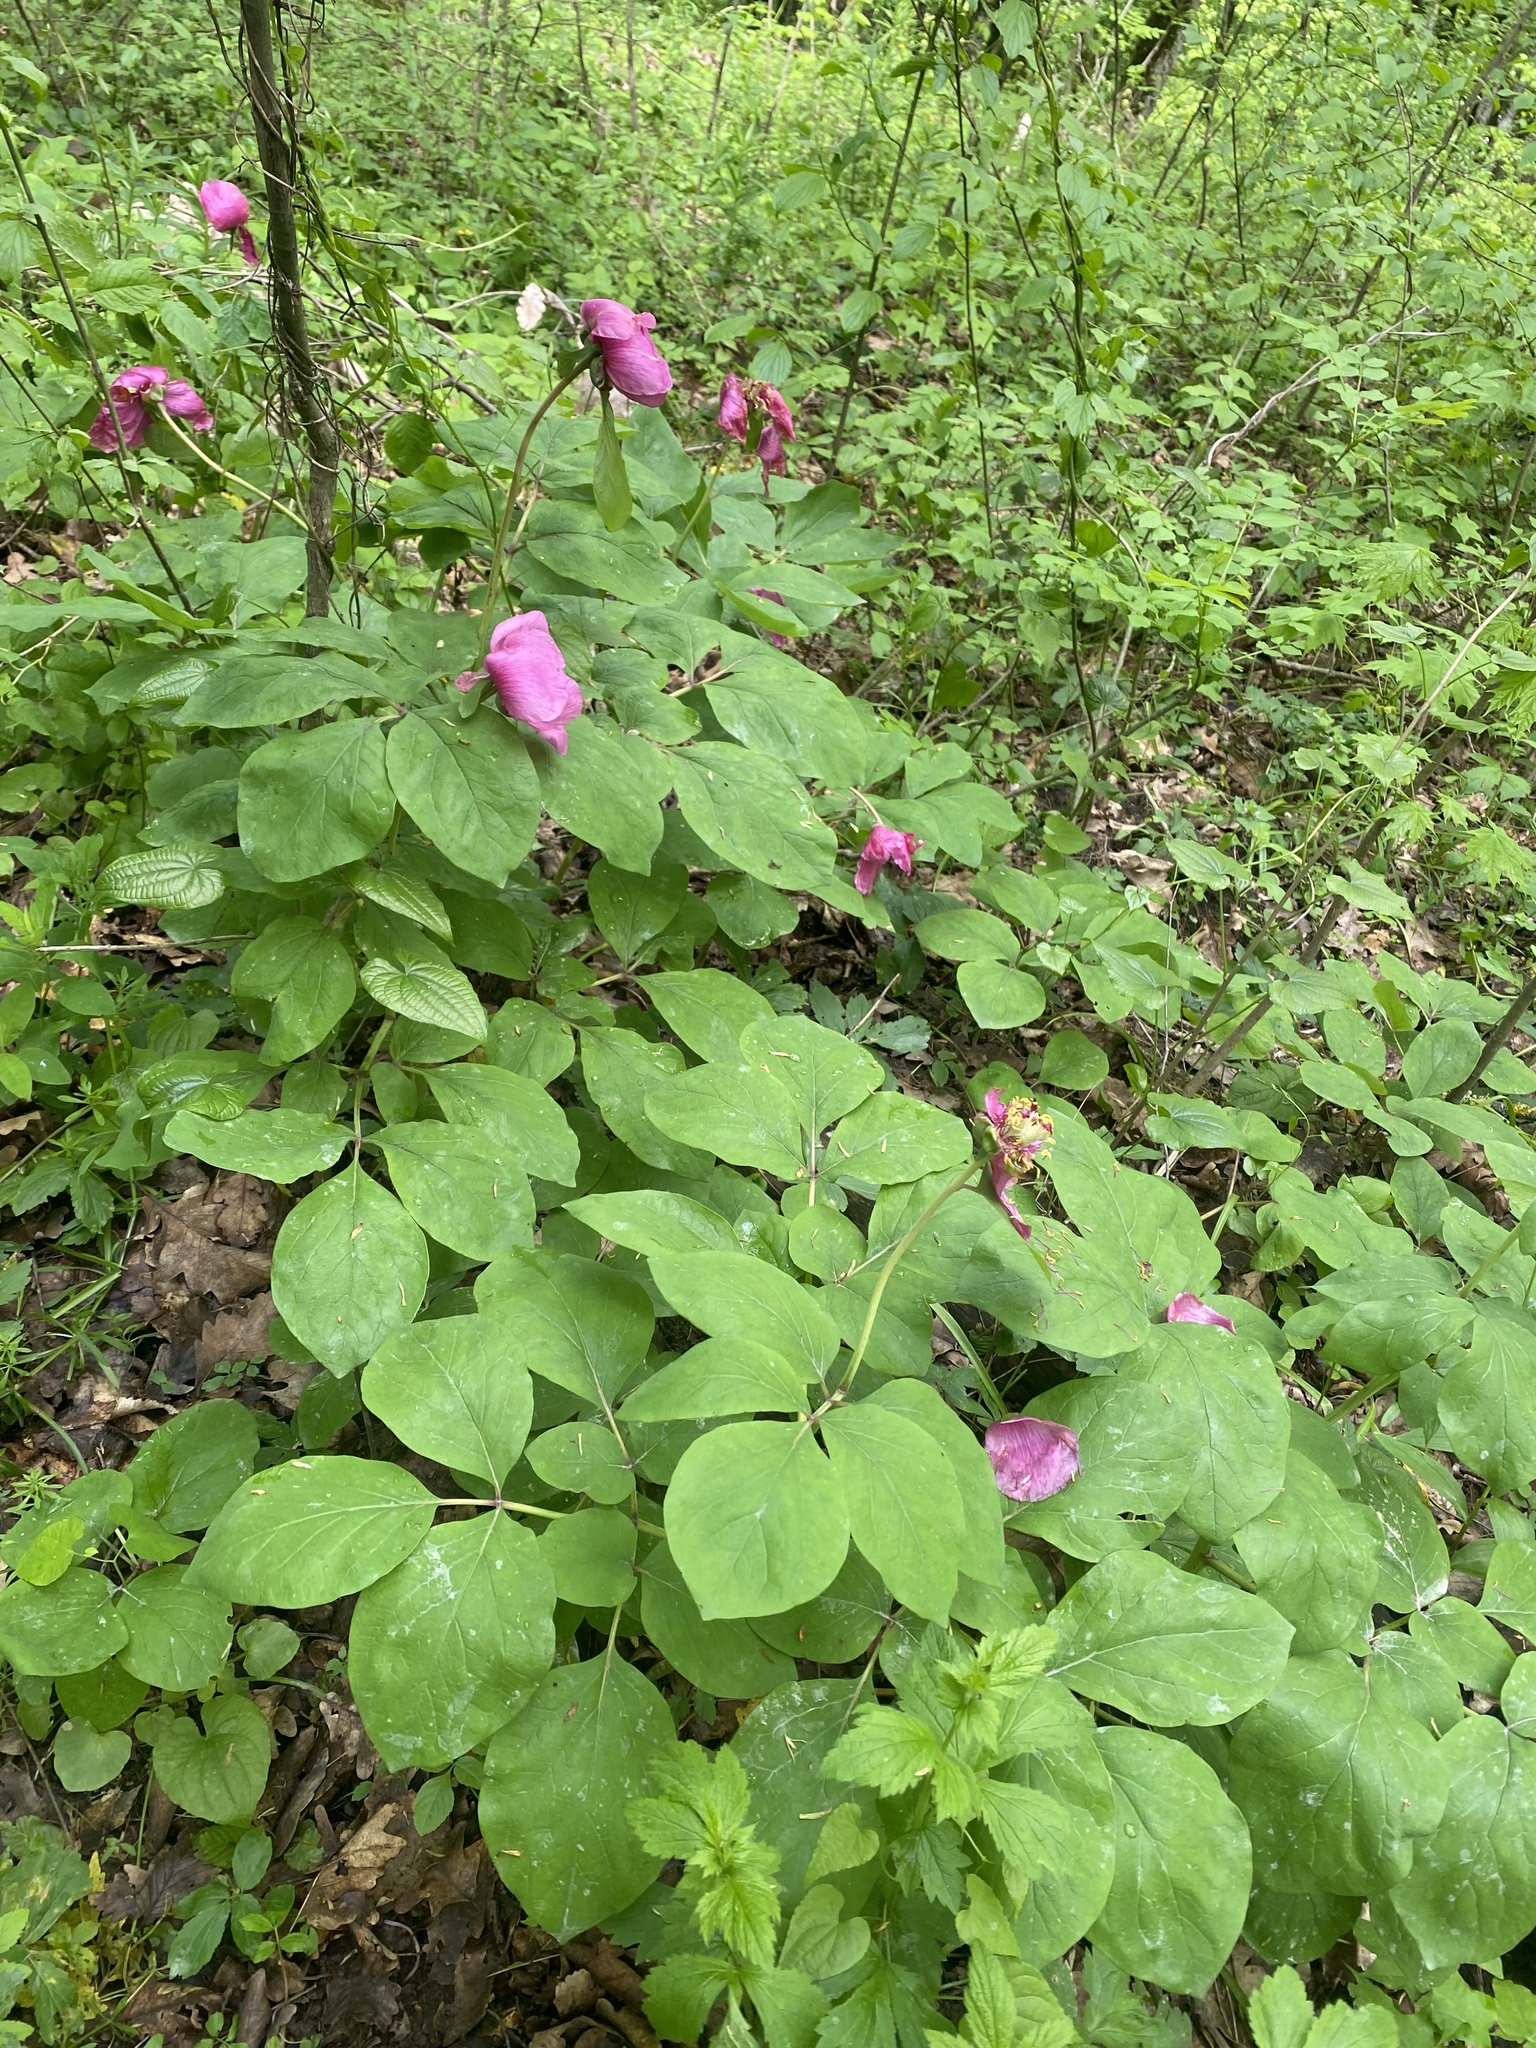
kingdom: Plantae
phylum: Tracheophyta
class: Magnoliopsida
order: Saxifragales
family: Paeoniaceae
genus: Paeonia
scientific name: Paeonia caucasica
